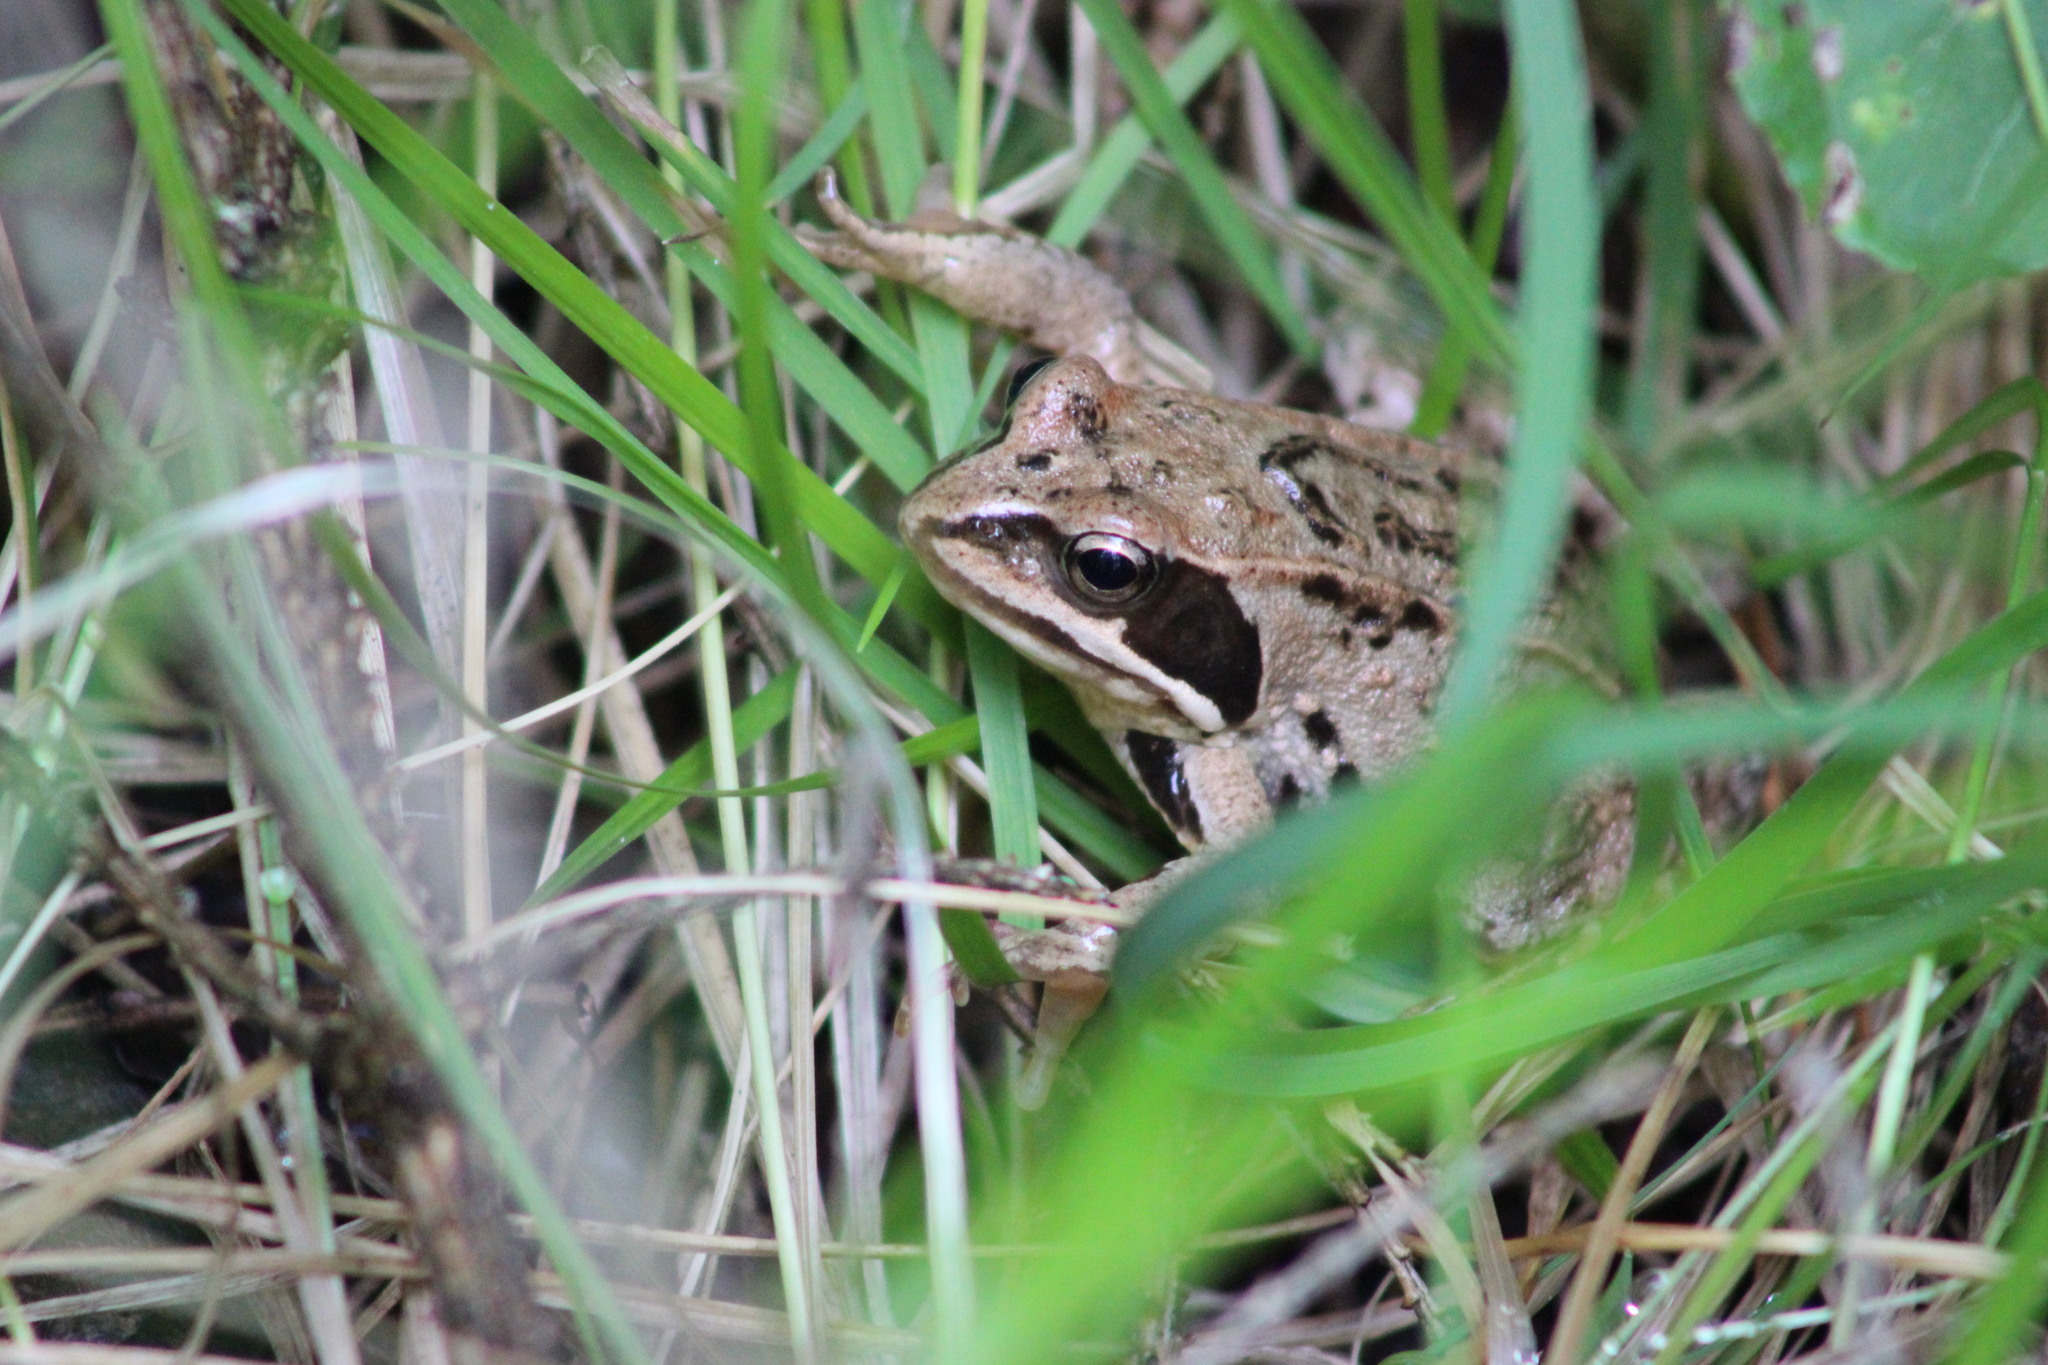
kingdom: Animalia
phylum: Chordata
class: Amphibia
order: Anura
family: Ranidae
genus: Rana
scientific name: Rana arvalis
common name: Moor frog
